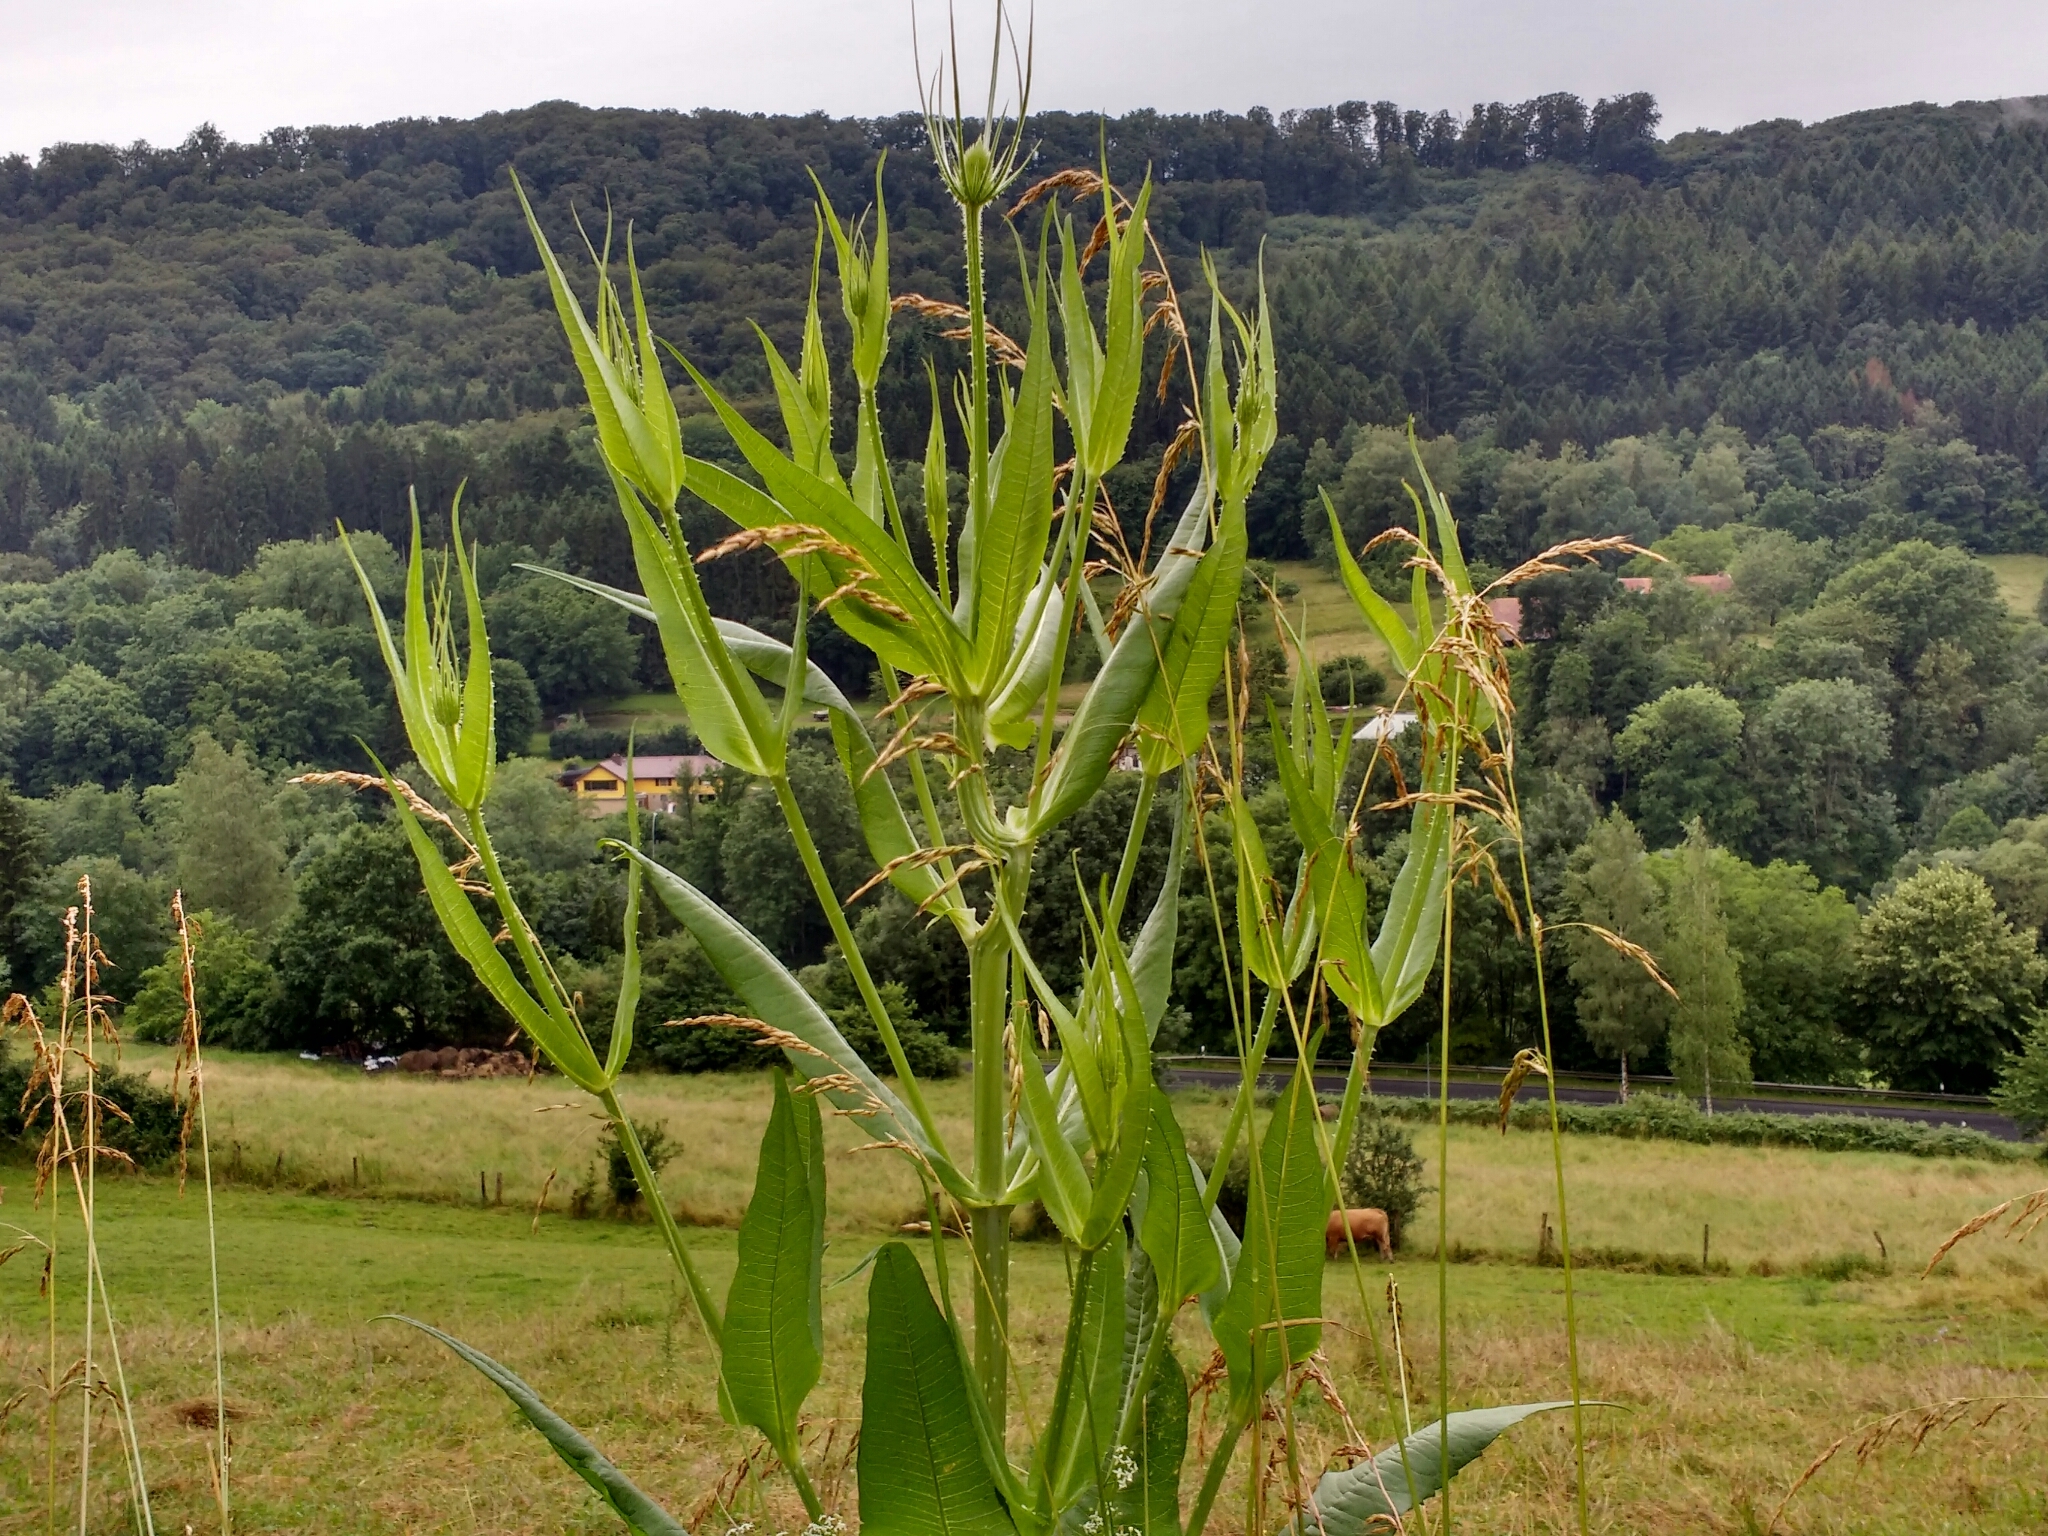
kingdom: Plantae
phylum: Tracheophyta
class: Magnoliopsida
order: Dipsacales
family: Caprifoliaceae
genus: Dipsacus
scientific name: Dipsacus fullonum
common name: Teasel
